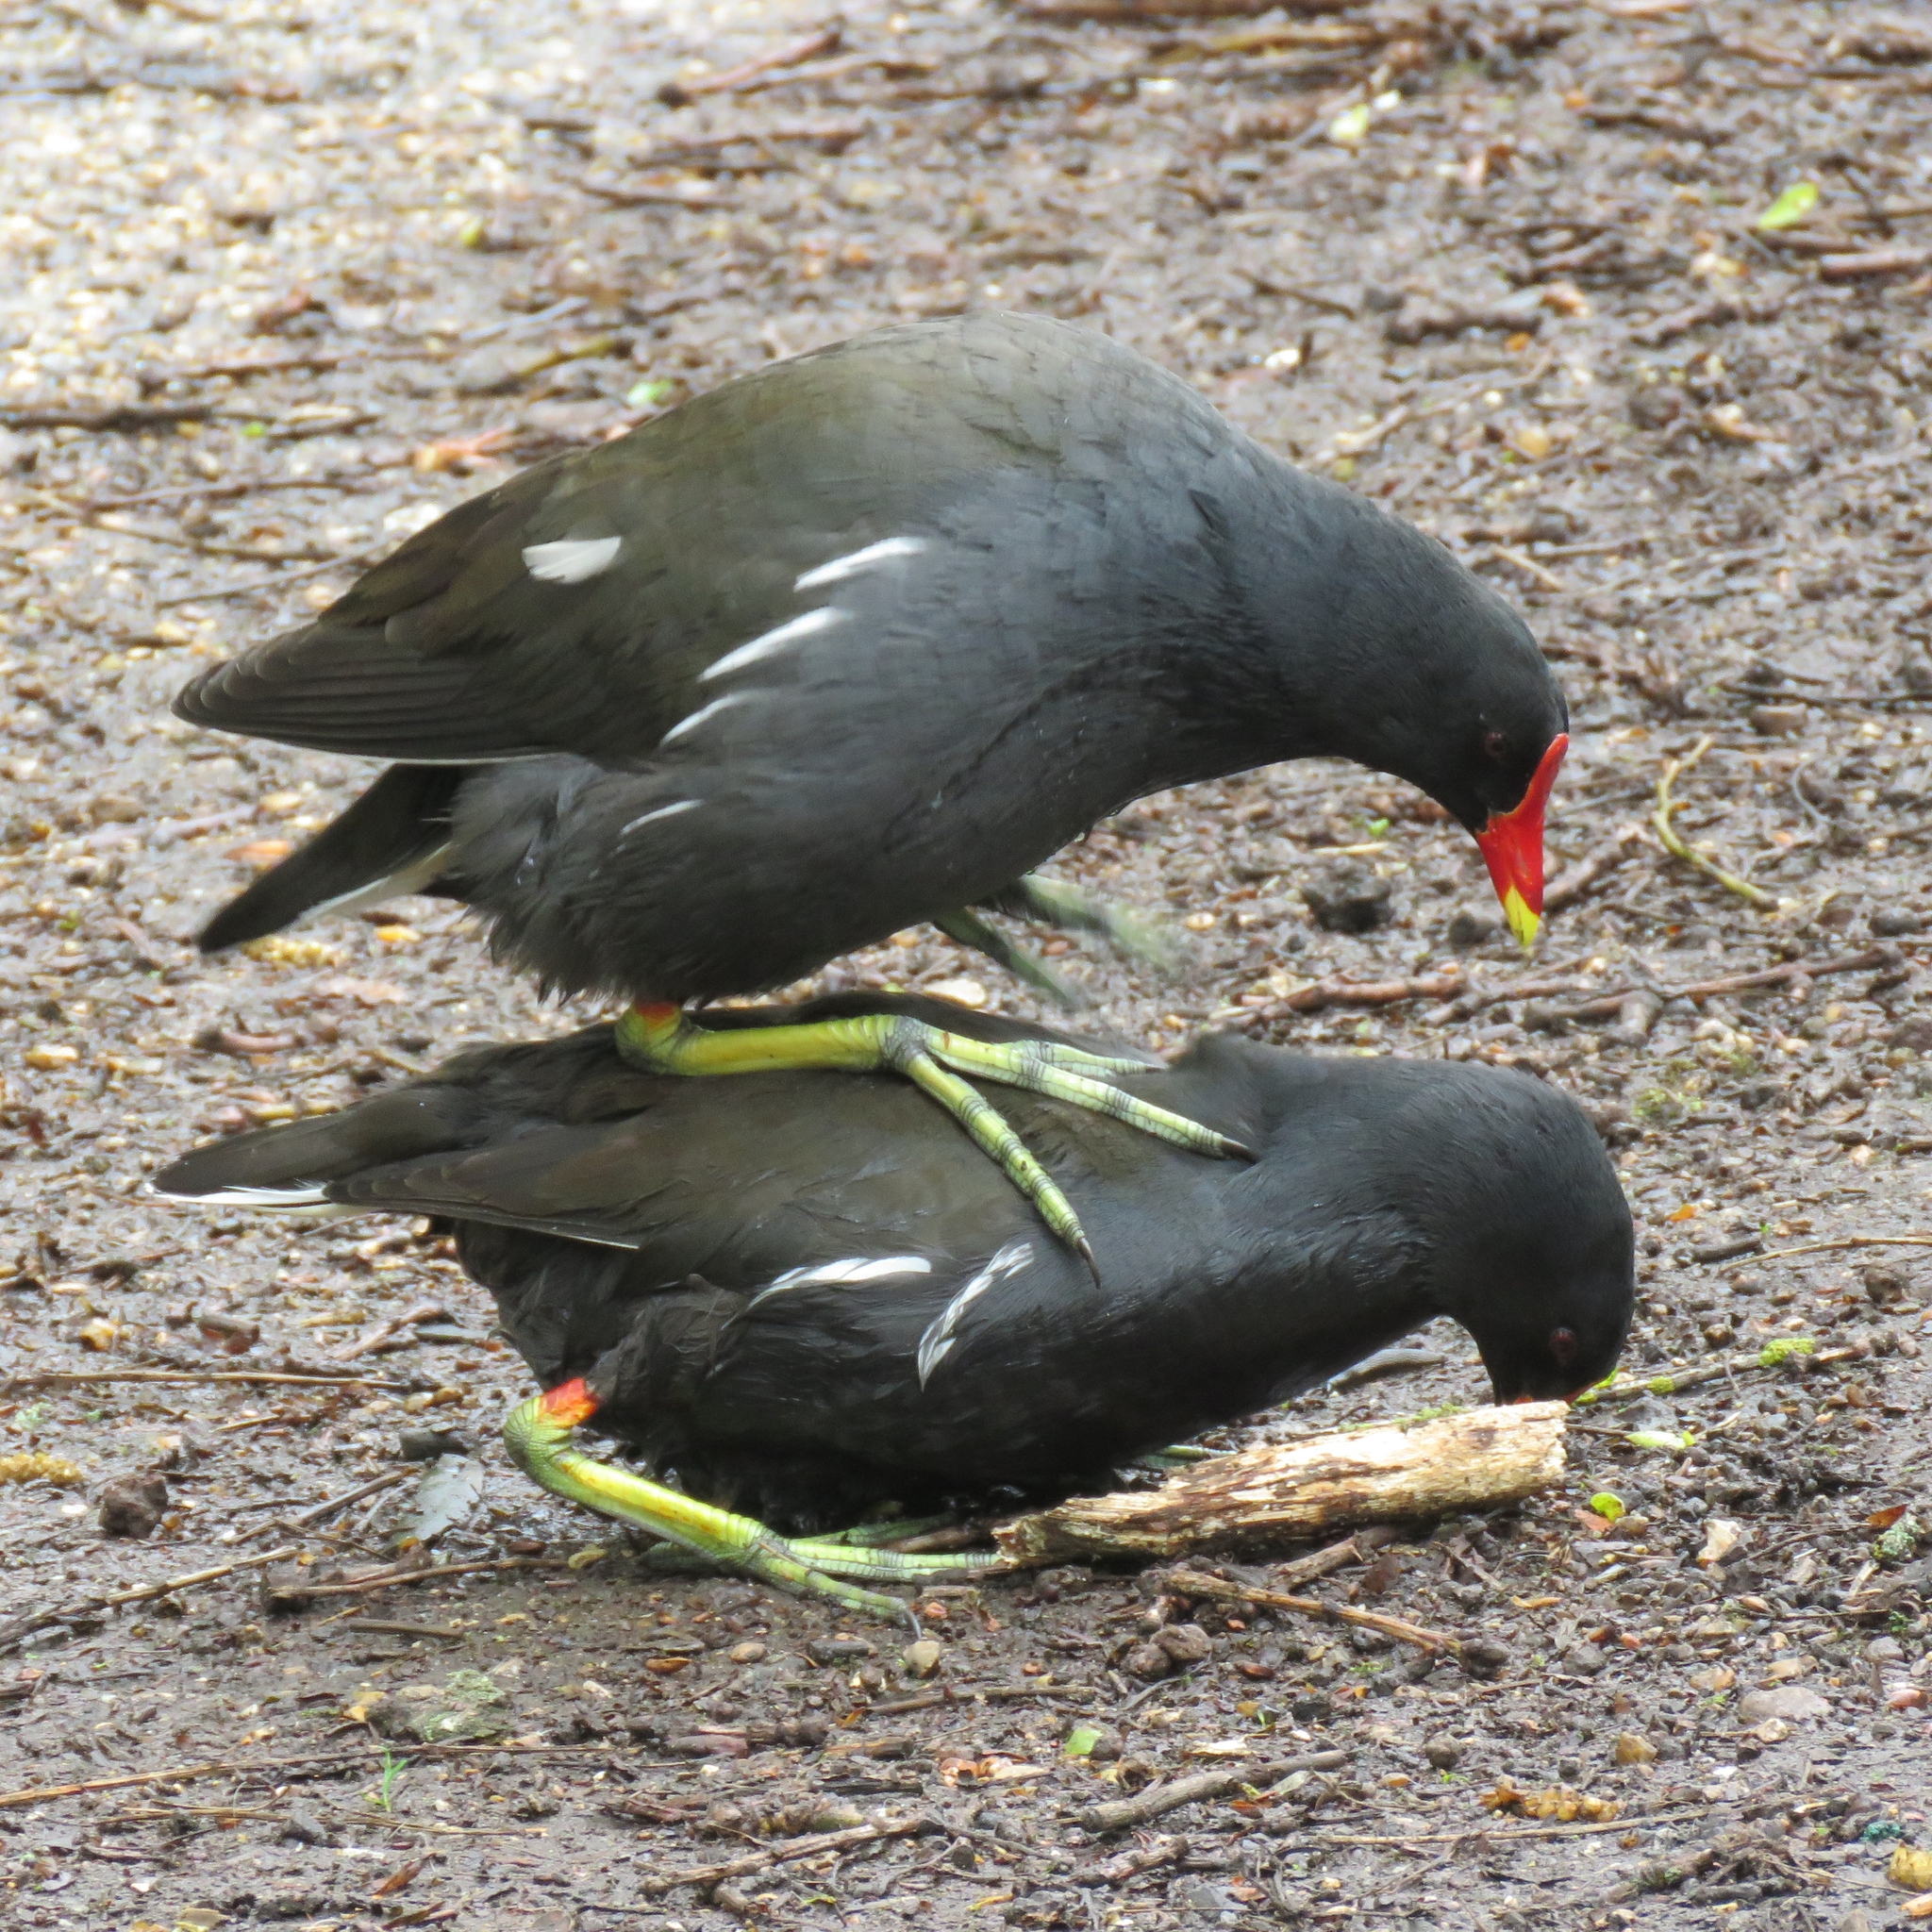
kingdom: Animalia
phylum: Chordata
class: Aves
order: Gruiformes
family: Rallidae
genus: Gallinula
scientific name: Gallinula chloropus
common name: Common moorhen
